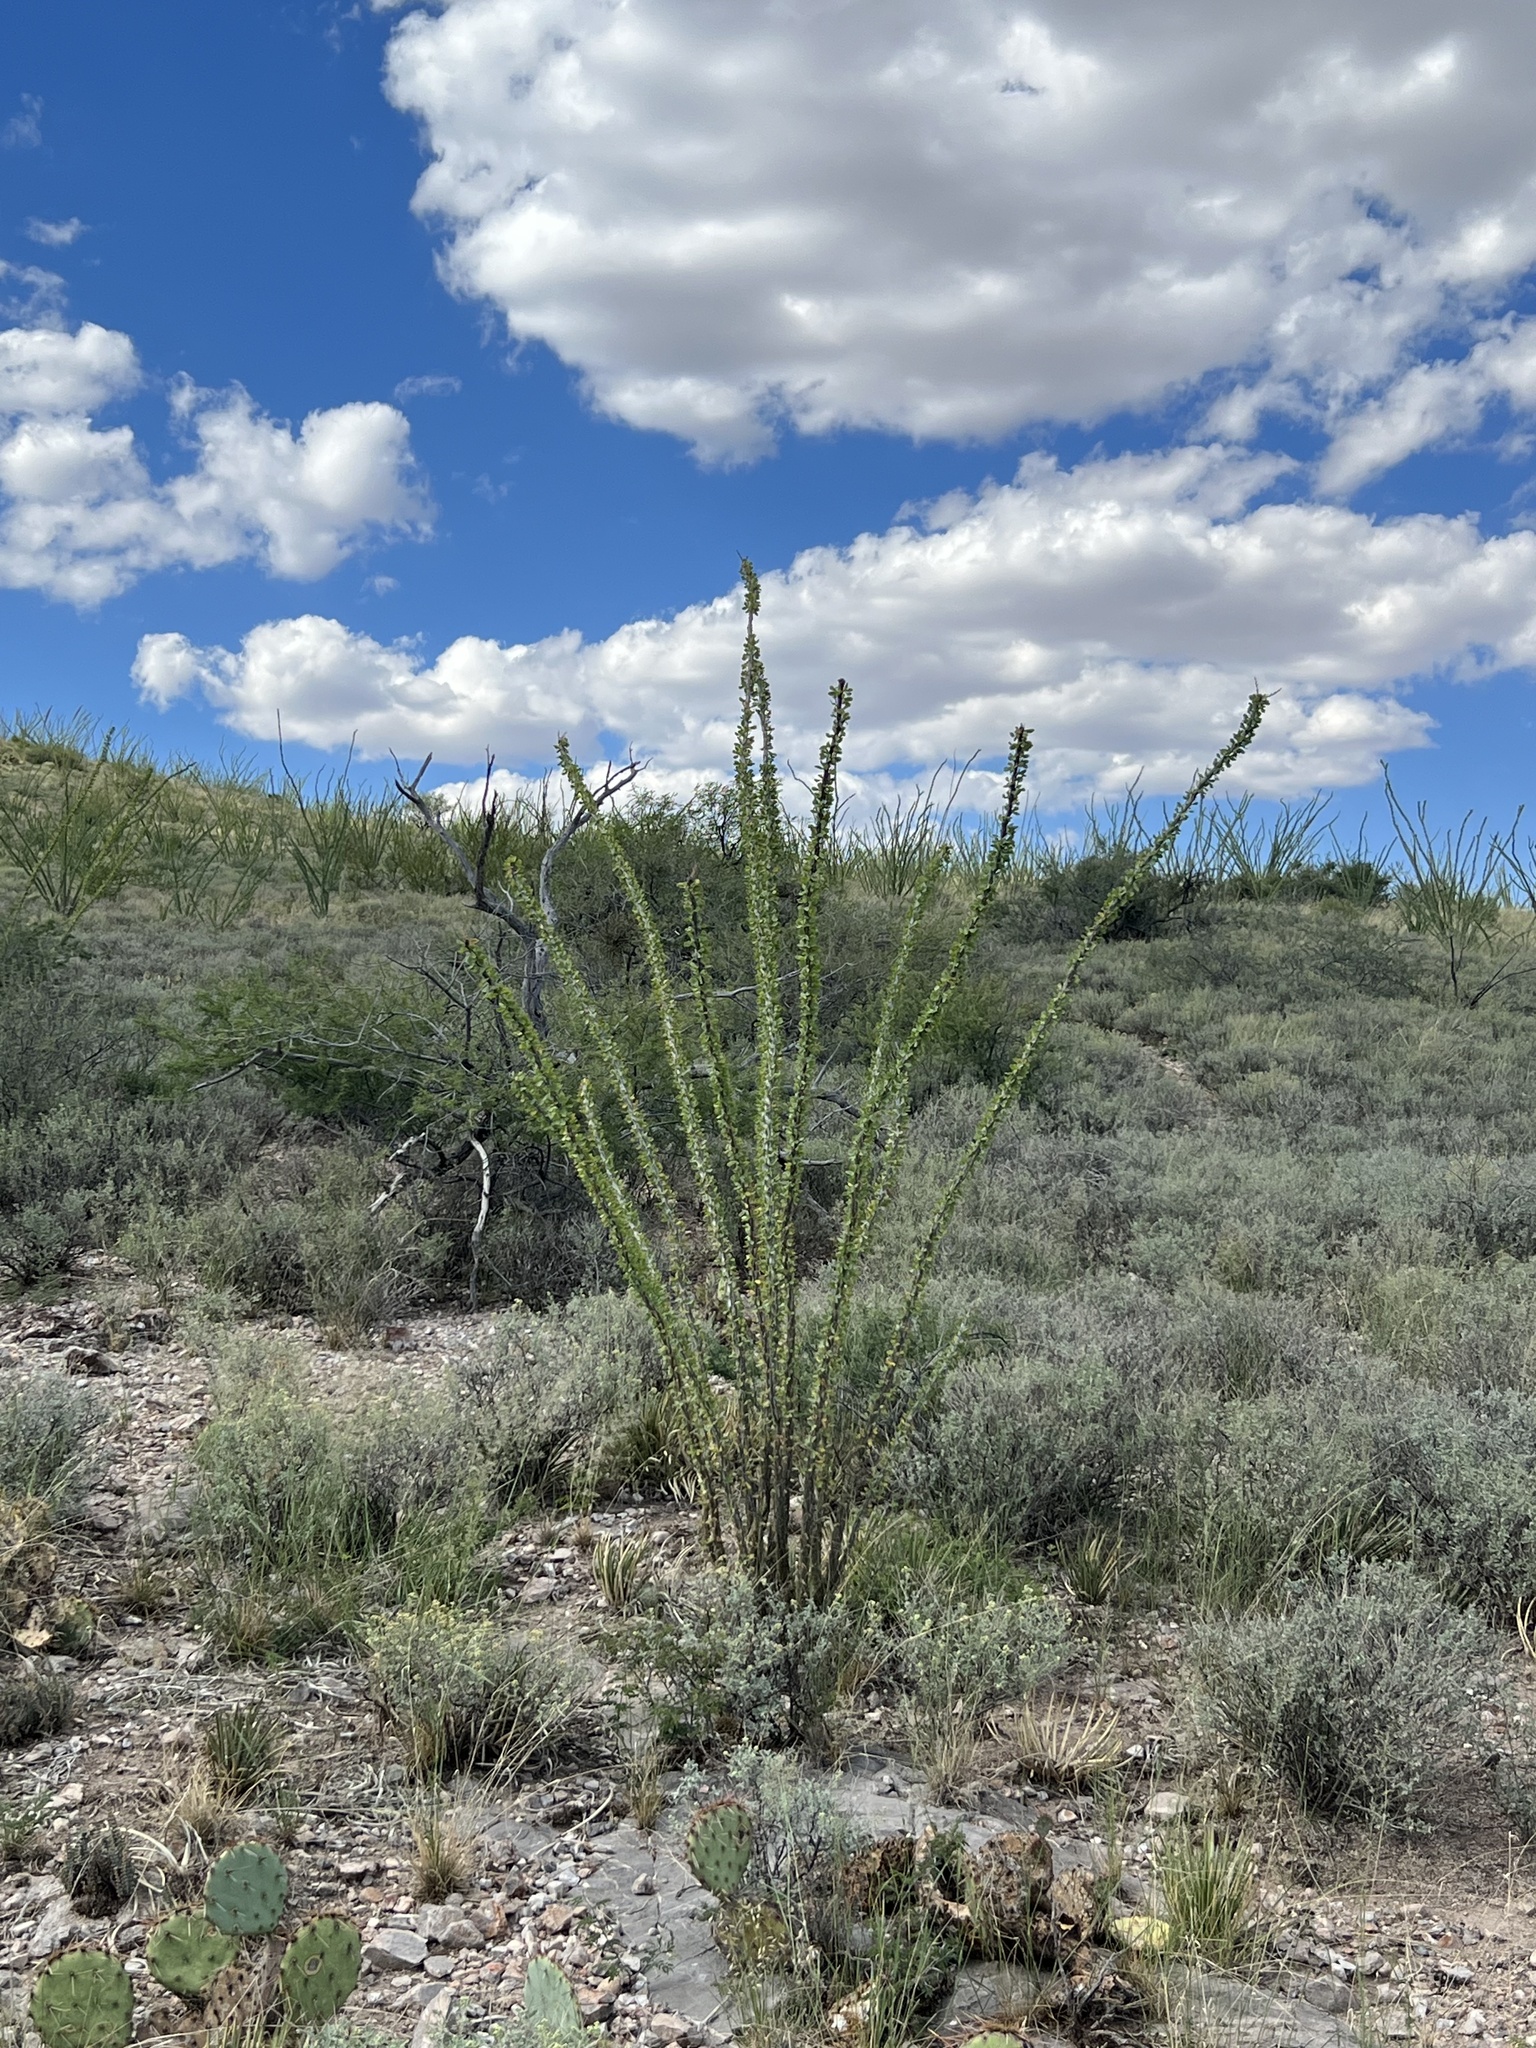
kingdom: Plantae
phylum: Tracheophyta
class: Magnoliopsida
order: Ericales
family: Fouquieriaceae
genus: Fouquieria
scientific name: Fouquieria splendens
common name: Vine-cactus
